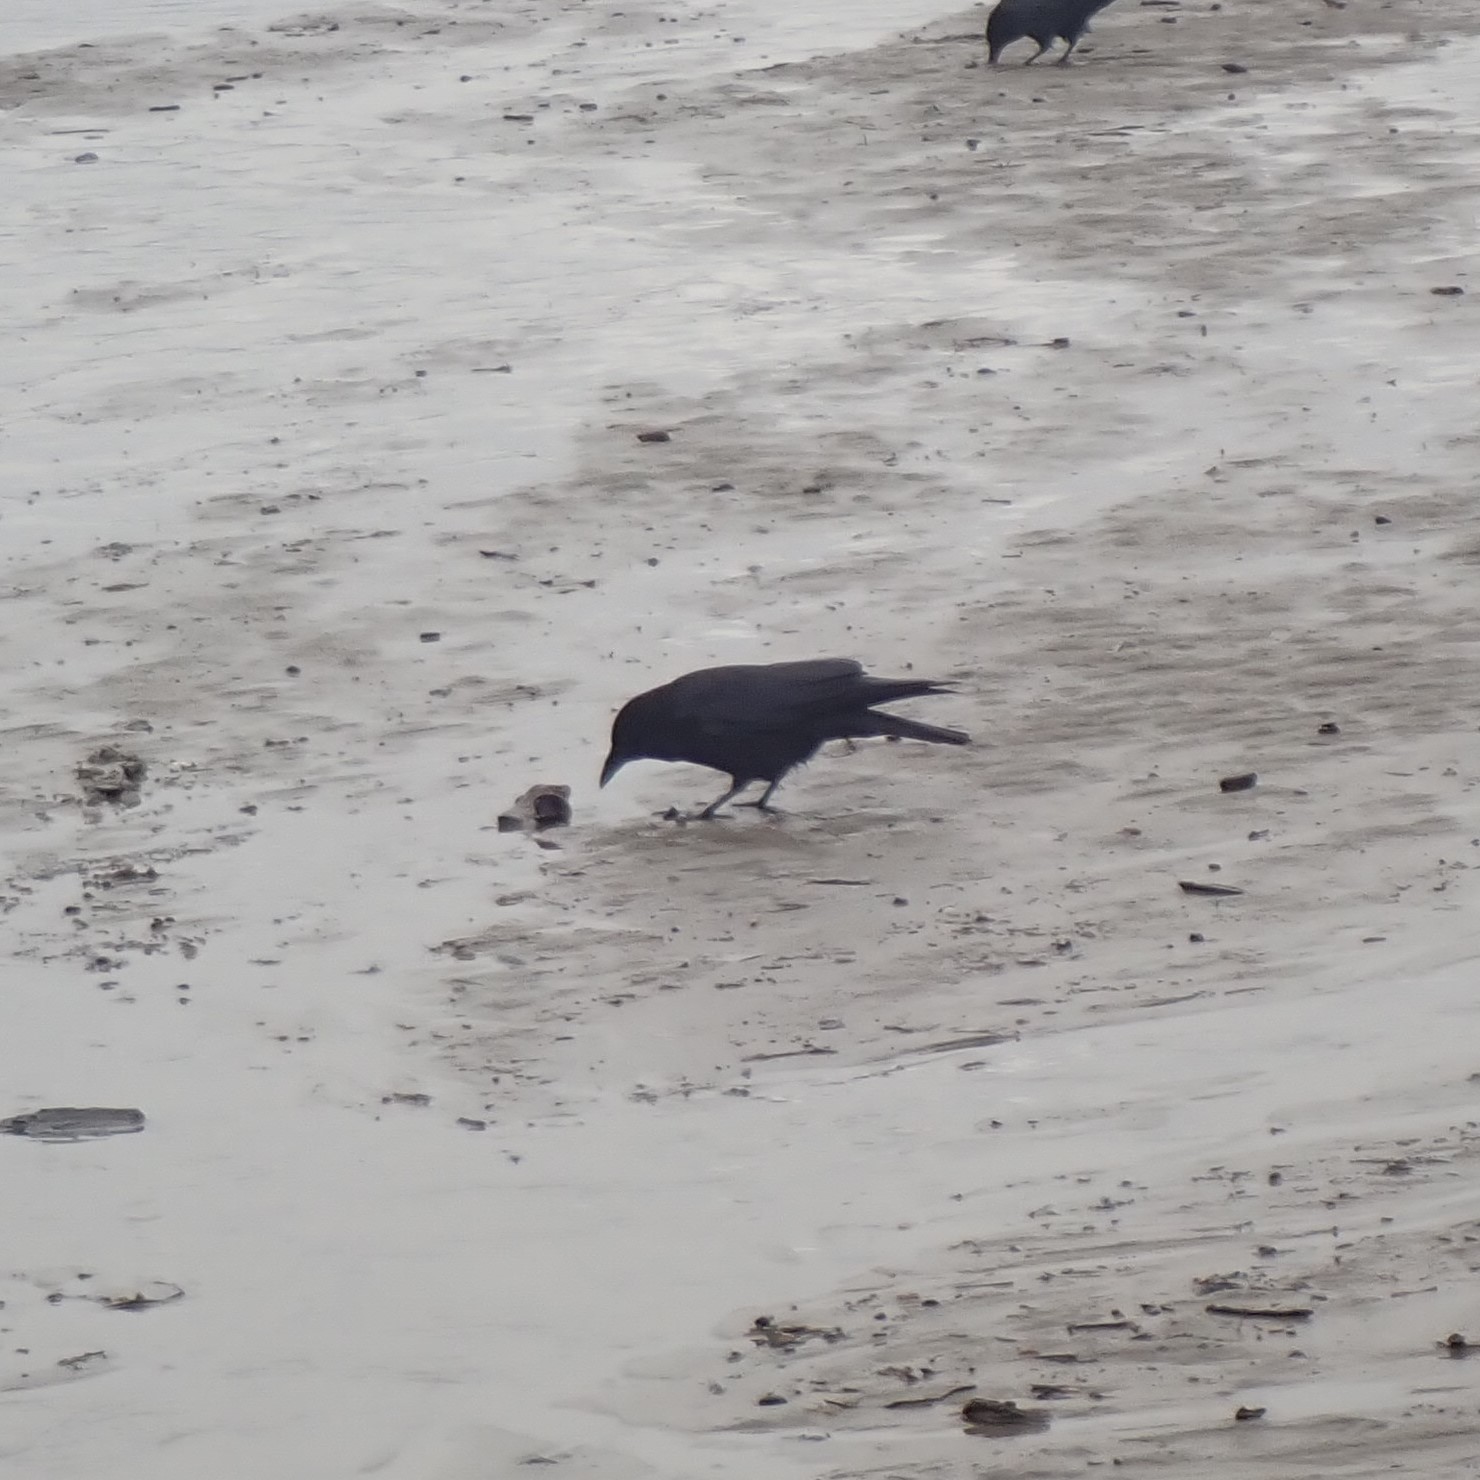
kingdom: Animalia
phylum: Chordata
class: Aves
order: Passeriformes
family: Corvidae
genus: Corvus
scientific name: Corvus brachyrhynchos
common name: American crow
